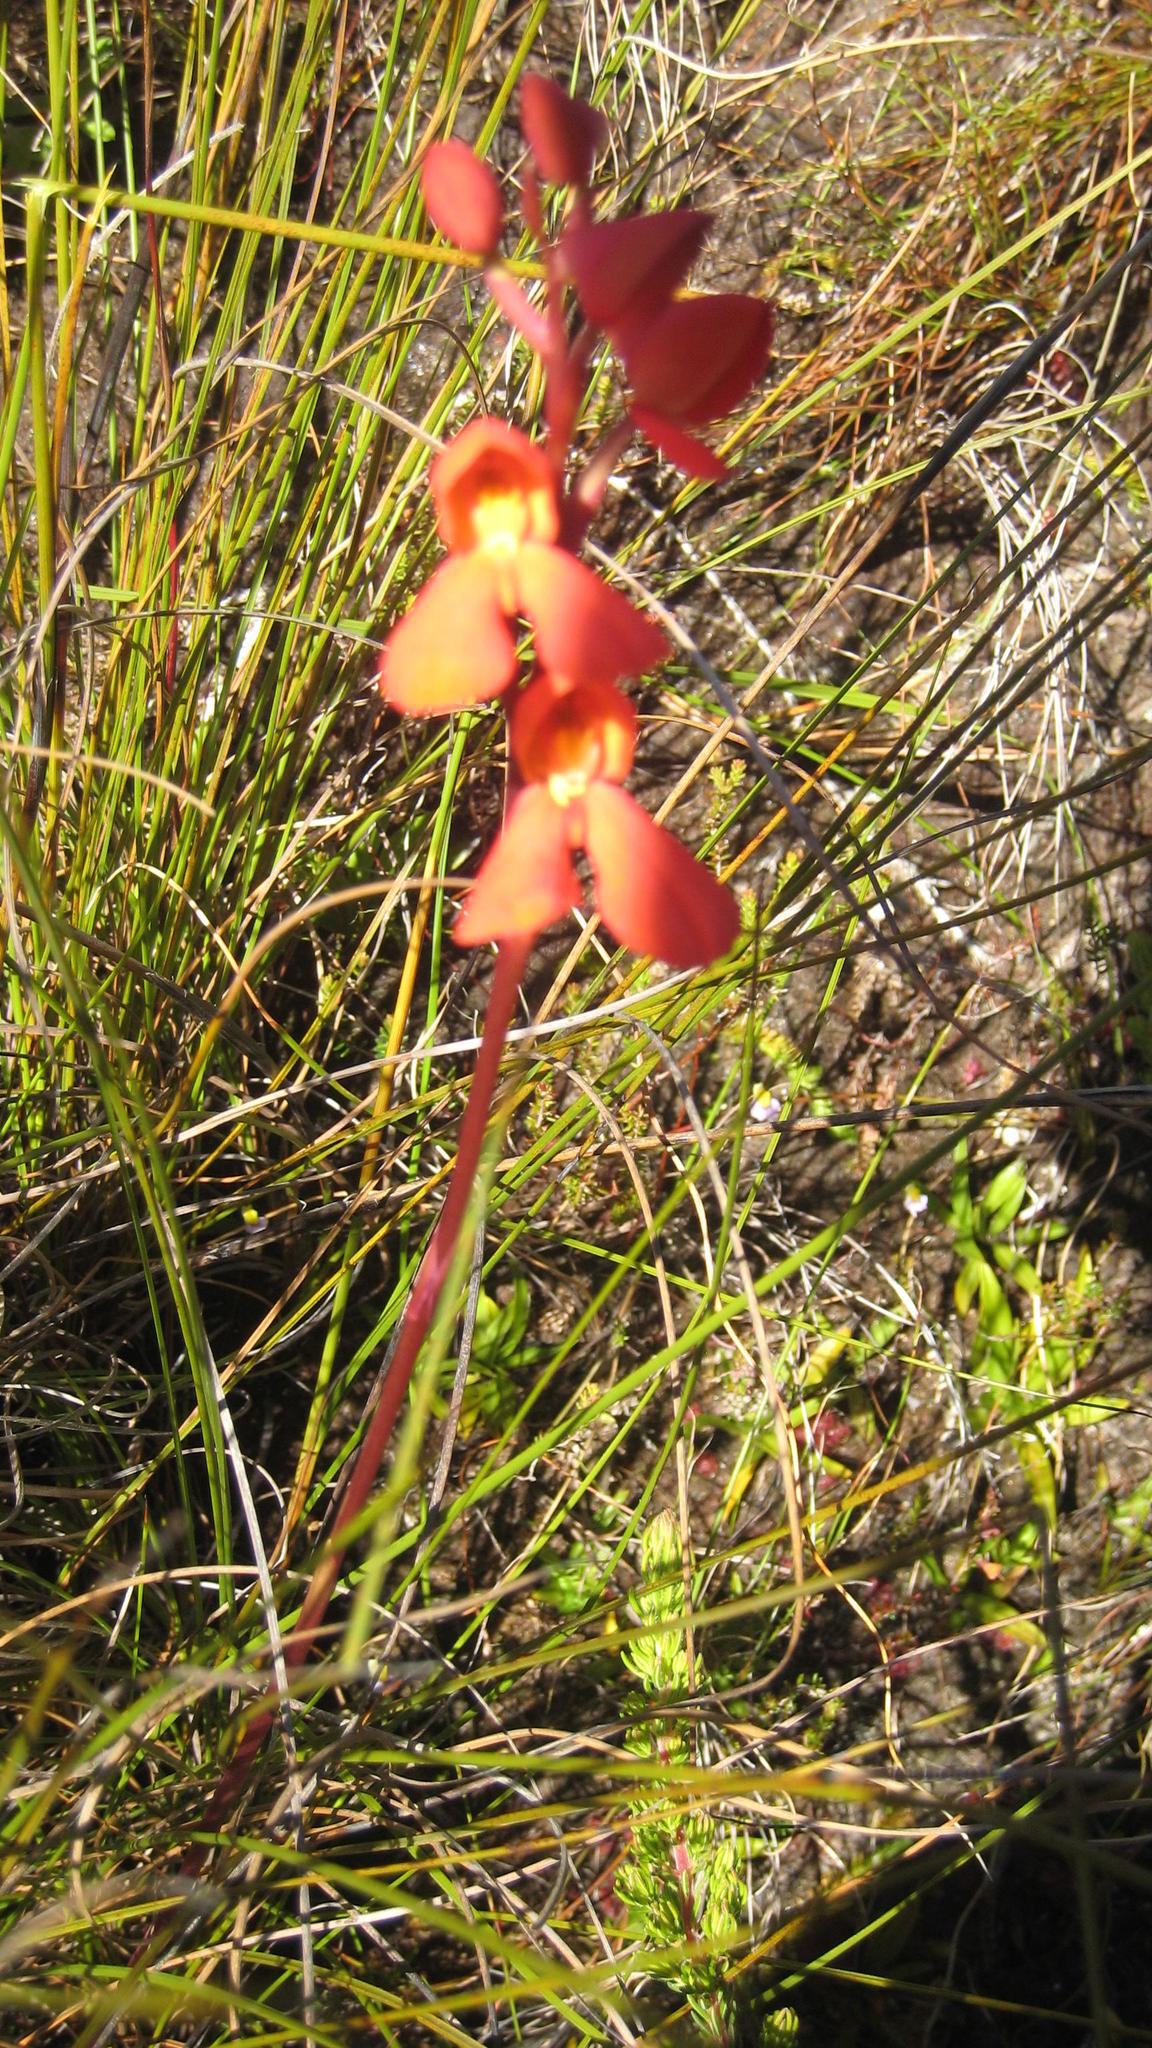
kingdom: Plantae
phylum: Tracheophyta
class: Liliopsida
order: Asparagales
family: Orchidaceae
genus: Disa
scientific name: Disa cardinalis
